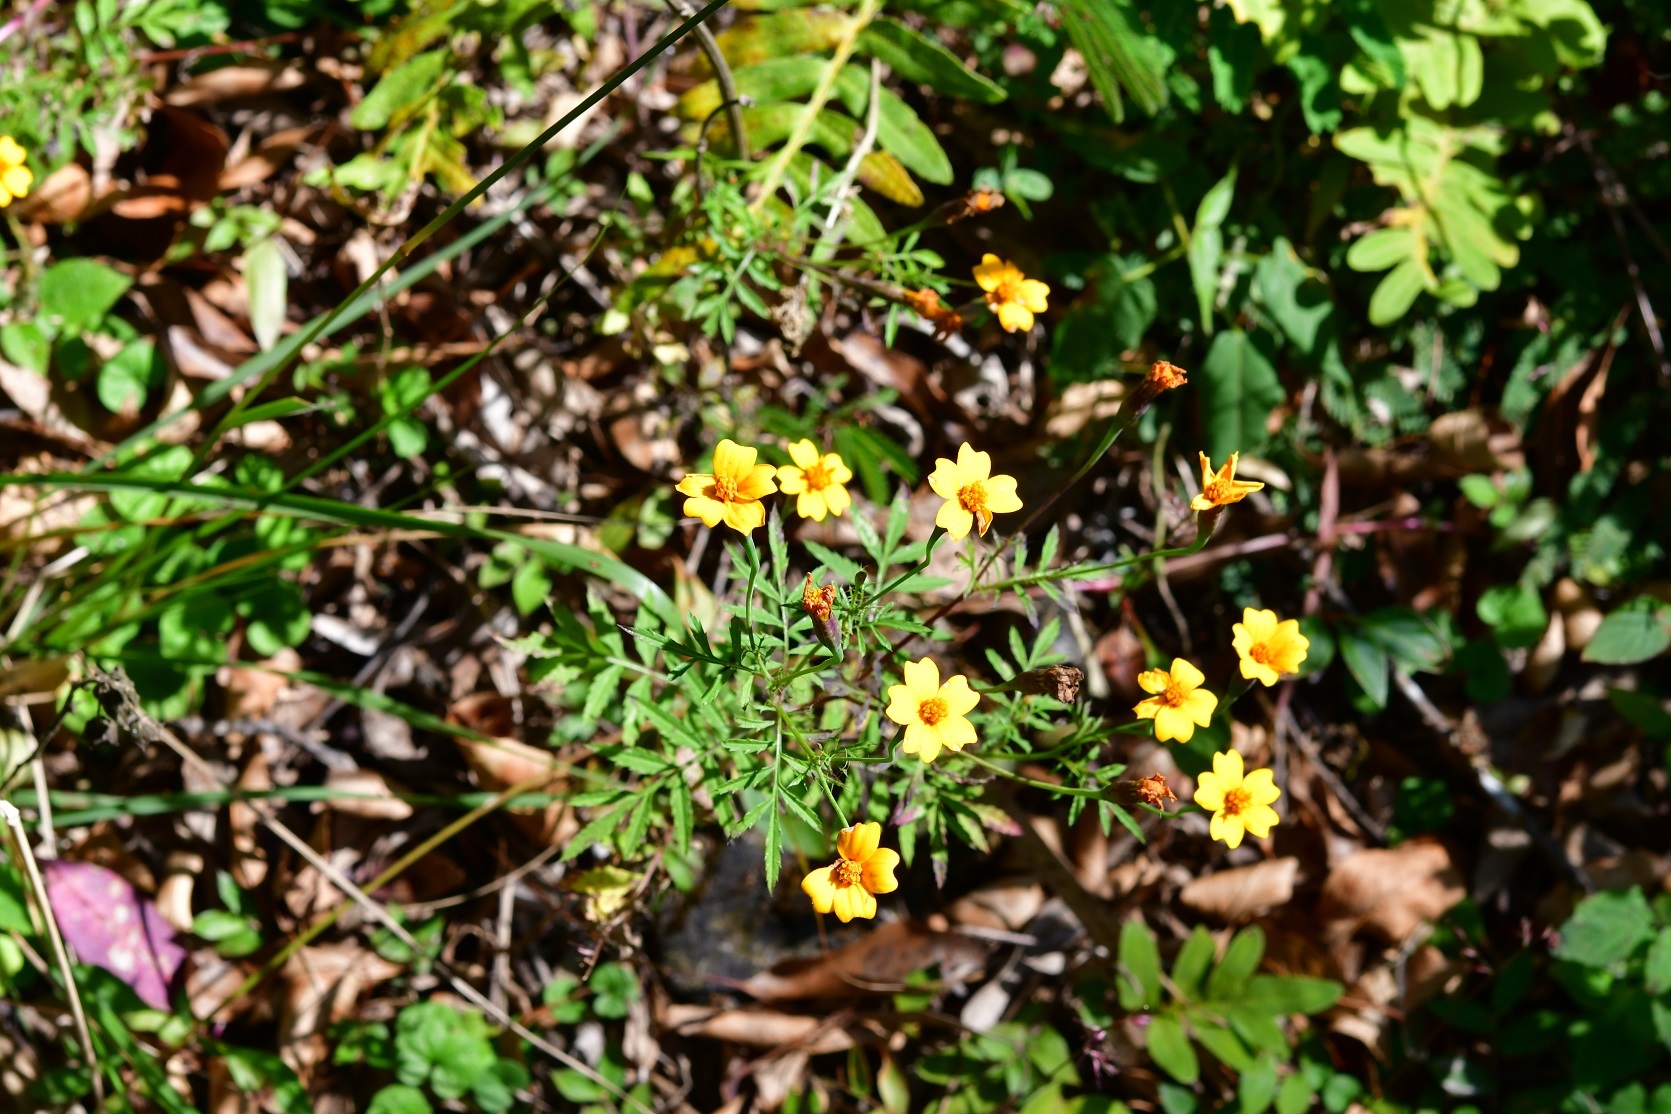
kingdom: Plantae
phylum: Tracheophyta
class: Magnoliopsida
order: Asterales
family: Asteraceae
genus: Tagetes
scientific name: Tagetes tenuifolia
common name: Signet marigold
